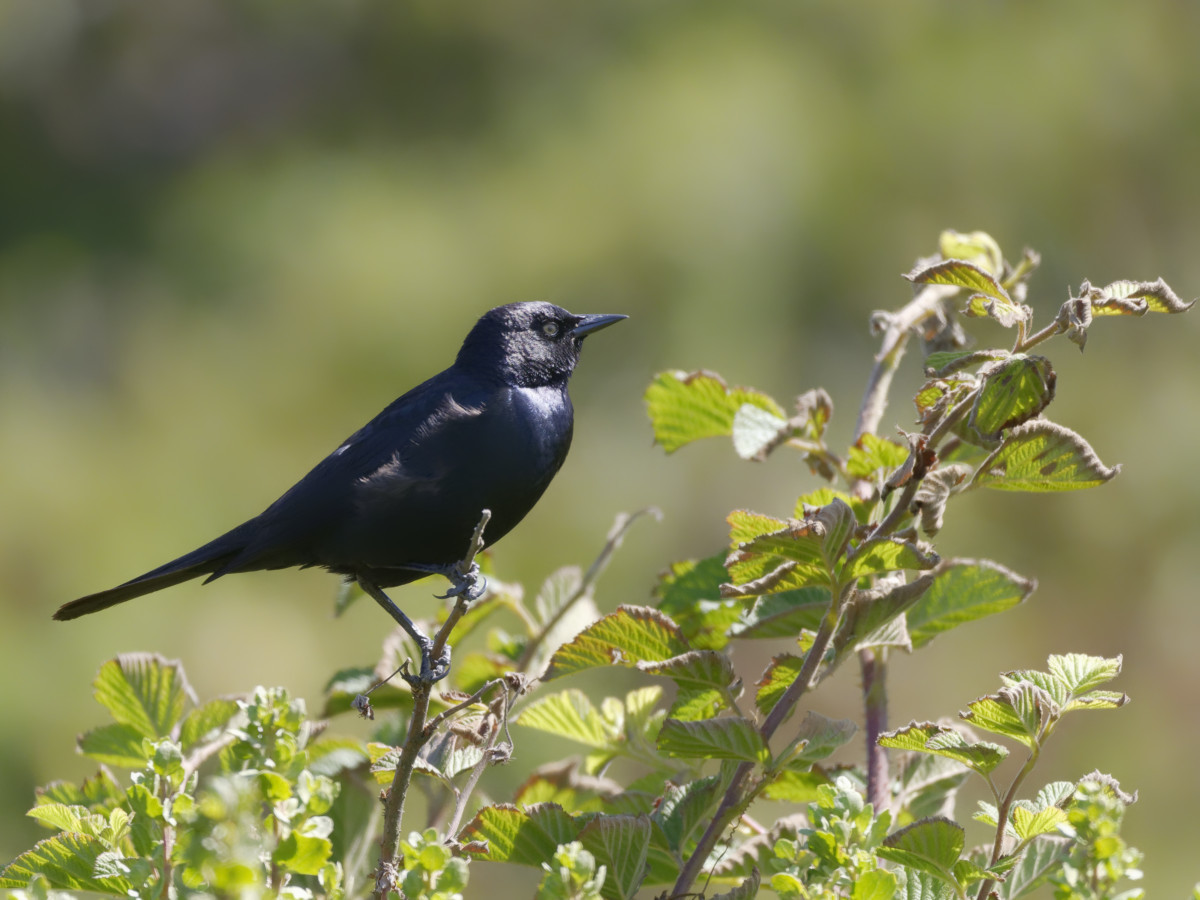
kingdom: Animalia
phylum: Chordata
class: Aves
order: Passeriformes
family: Icteridae
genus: Euphagus
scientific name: Euphagus cyanocephalus
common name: Brewer's blackbird
